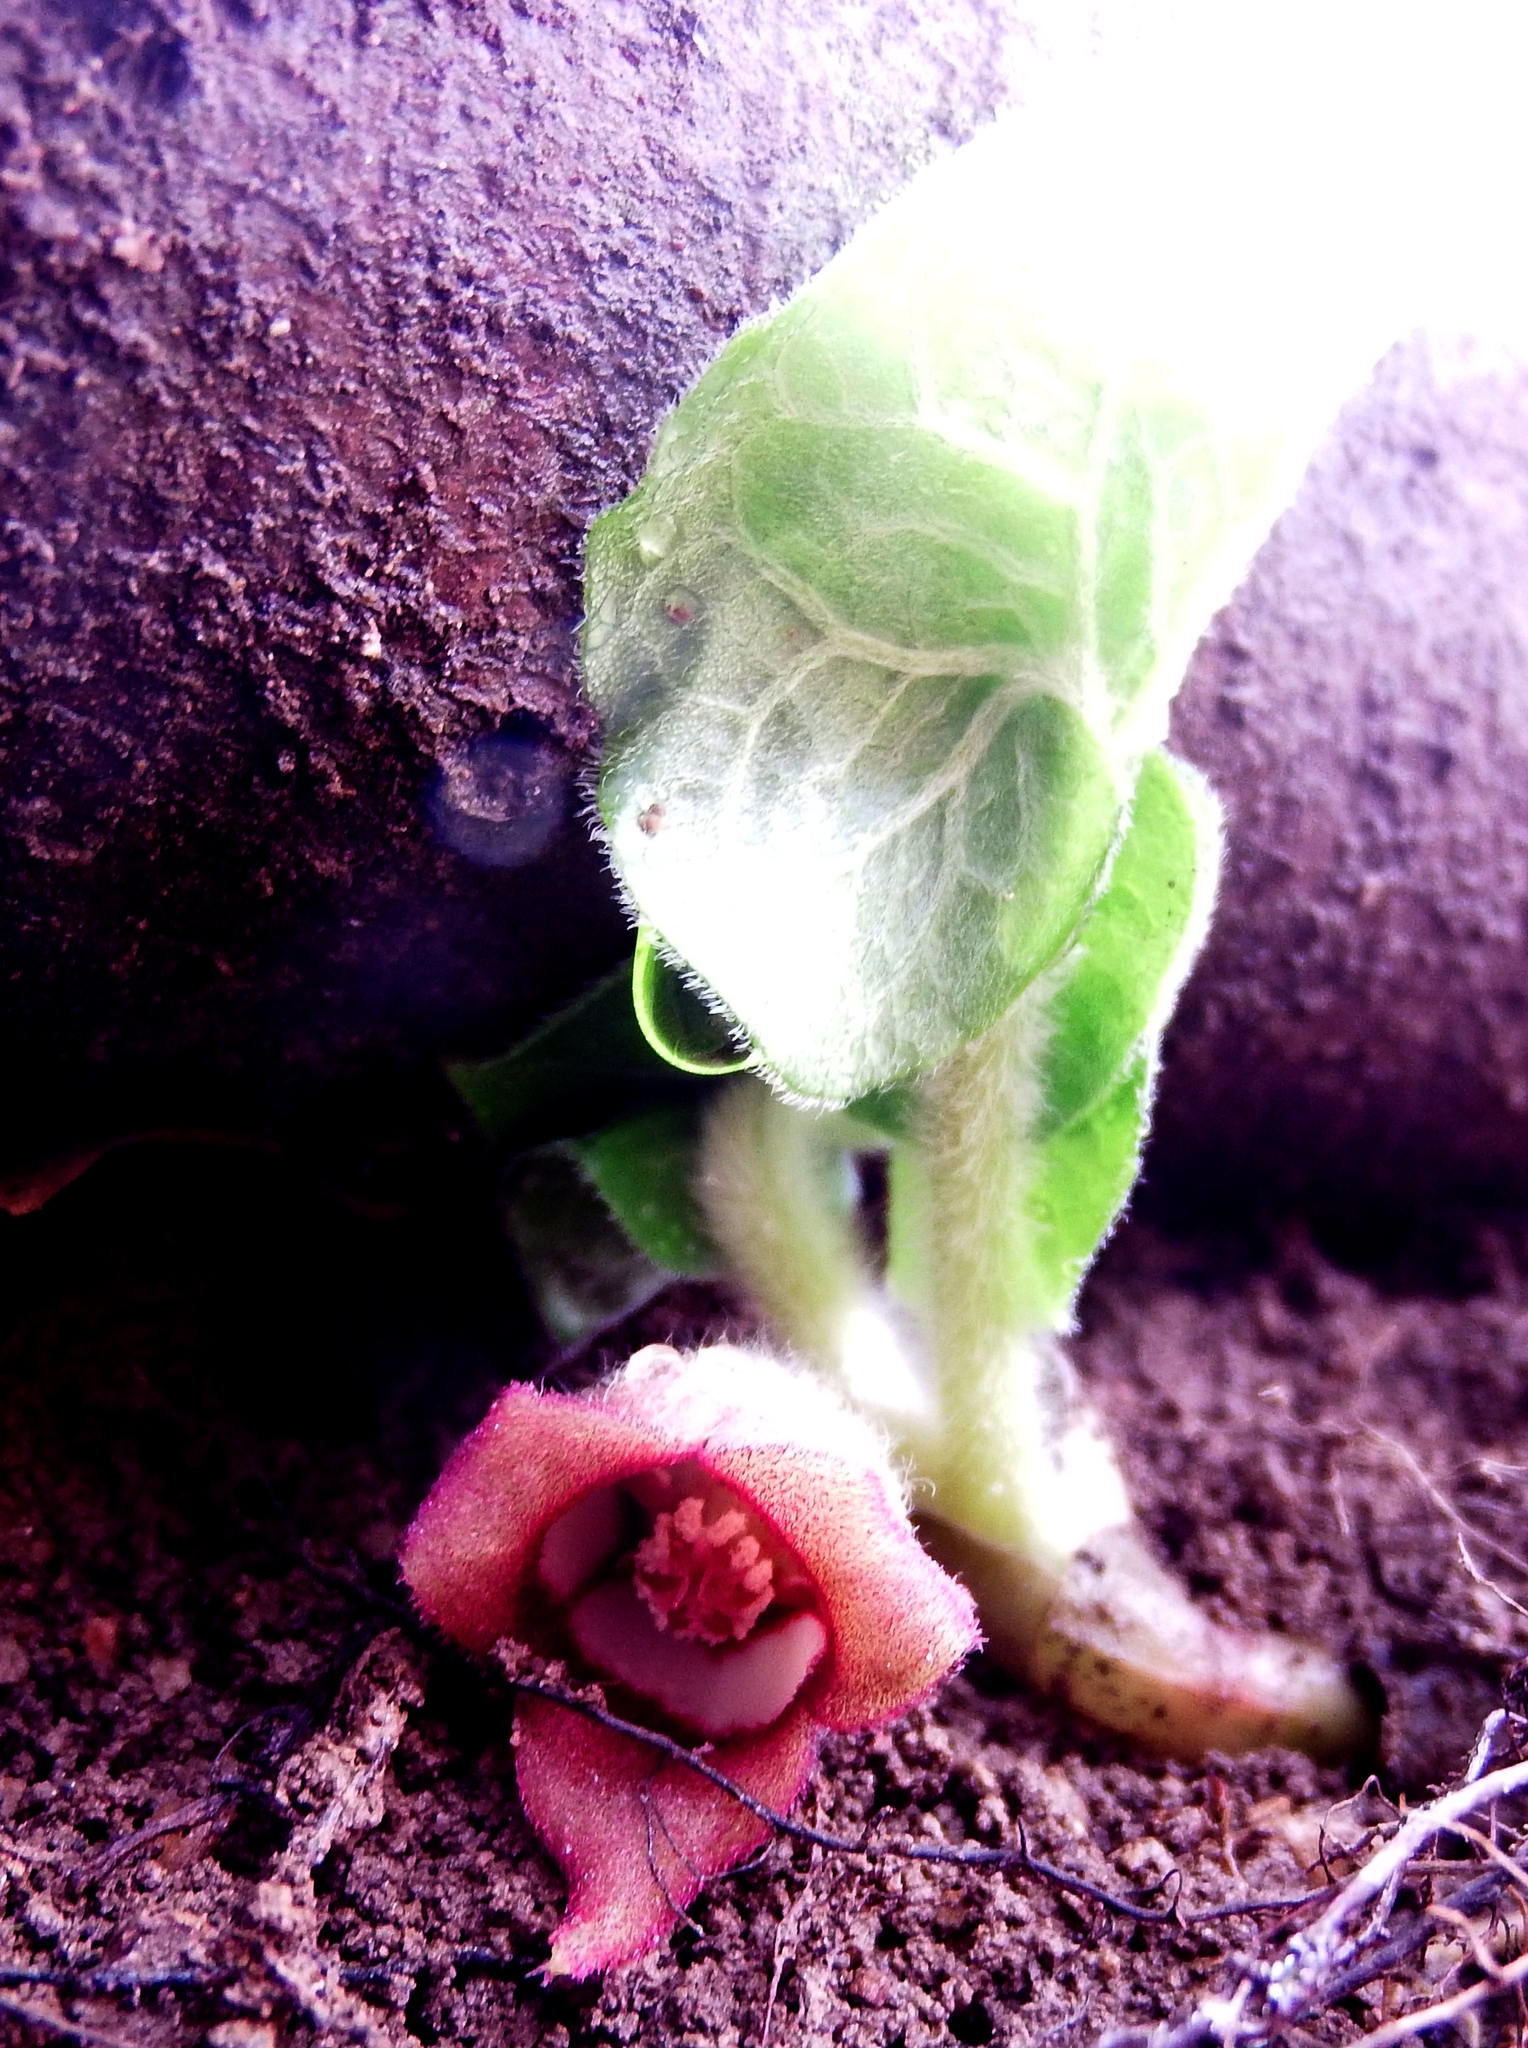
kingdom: Plantae
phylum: Tracheophyta
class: Magnoliopsida
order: Piperales
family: Aristolochiaceae
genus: Asarum
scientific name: Asarum canadense
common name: Wild ginger
